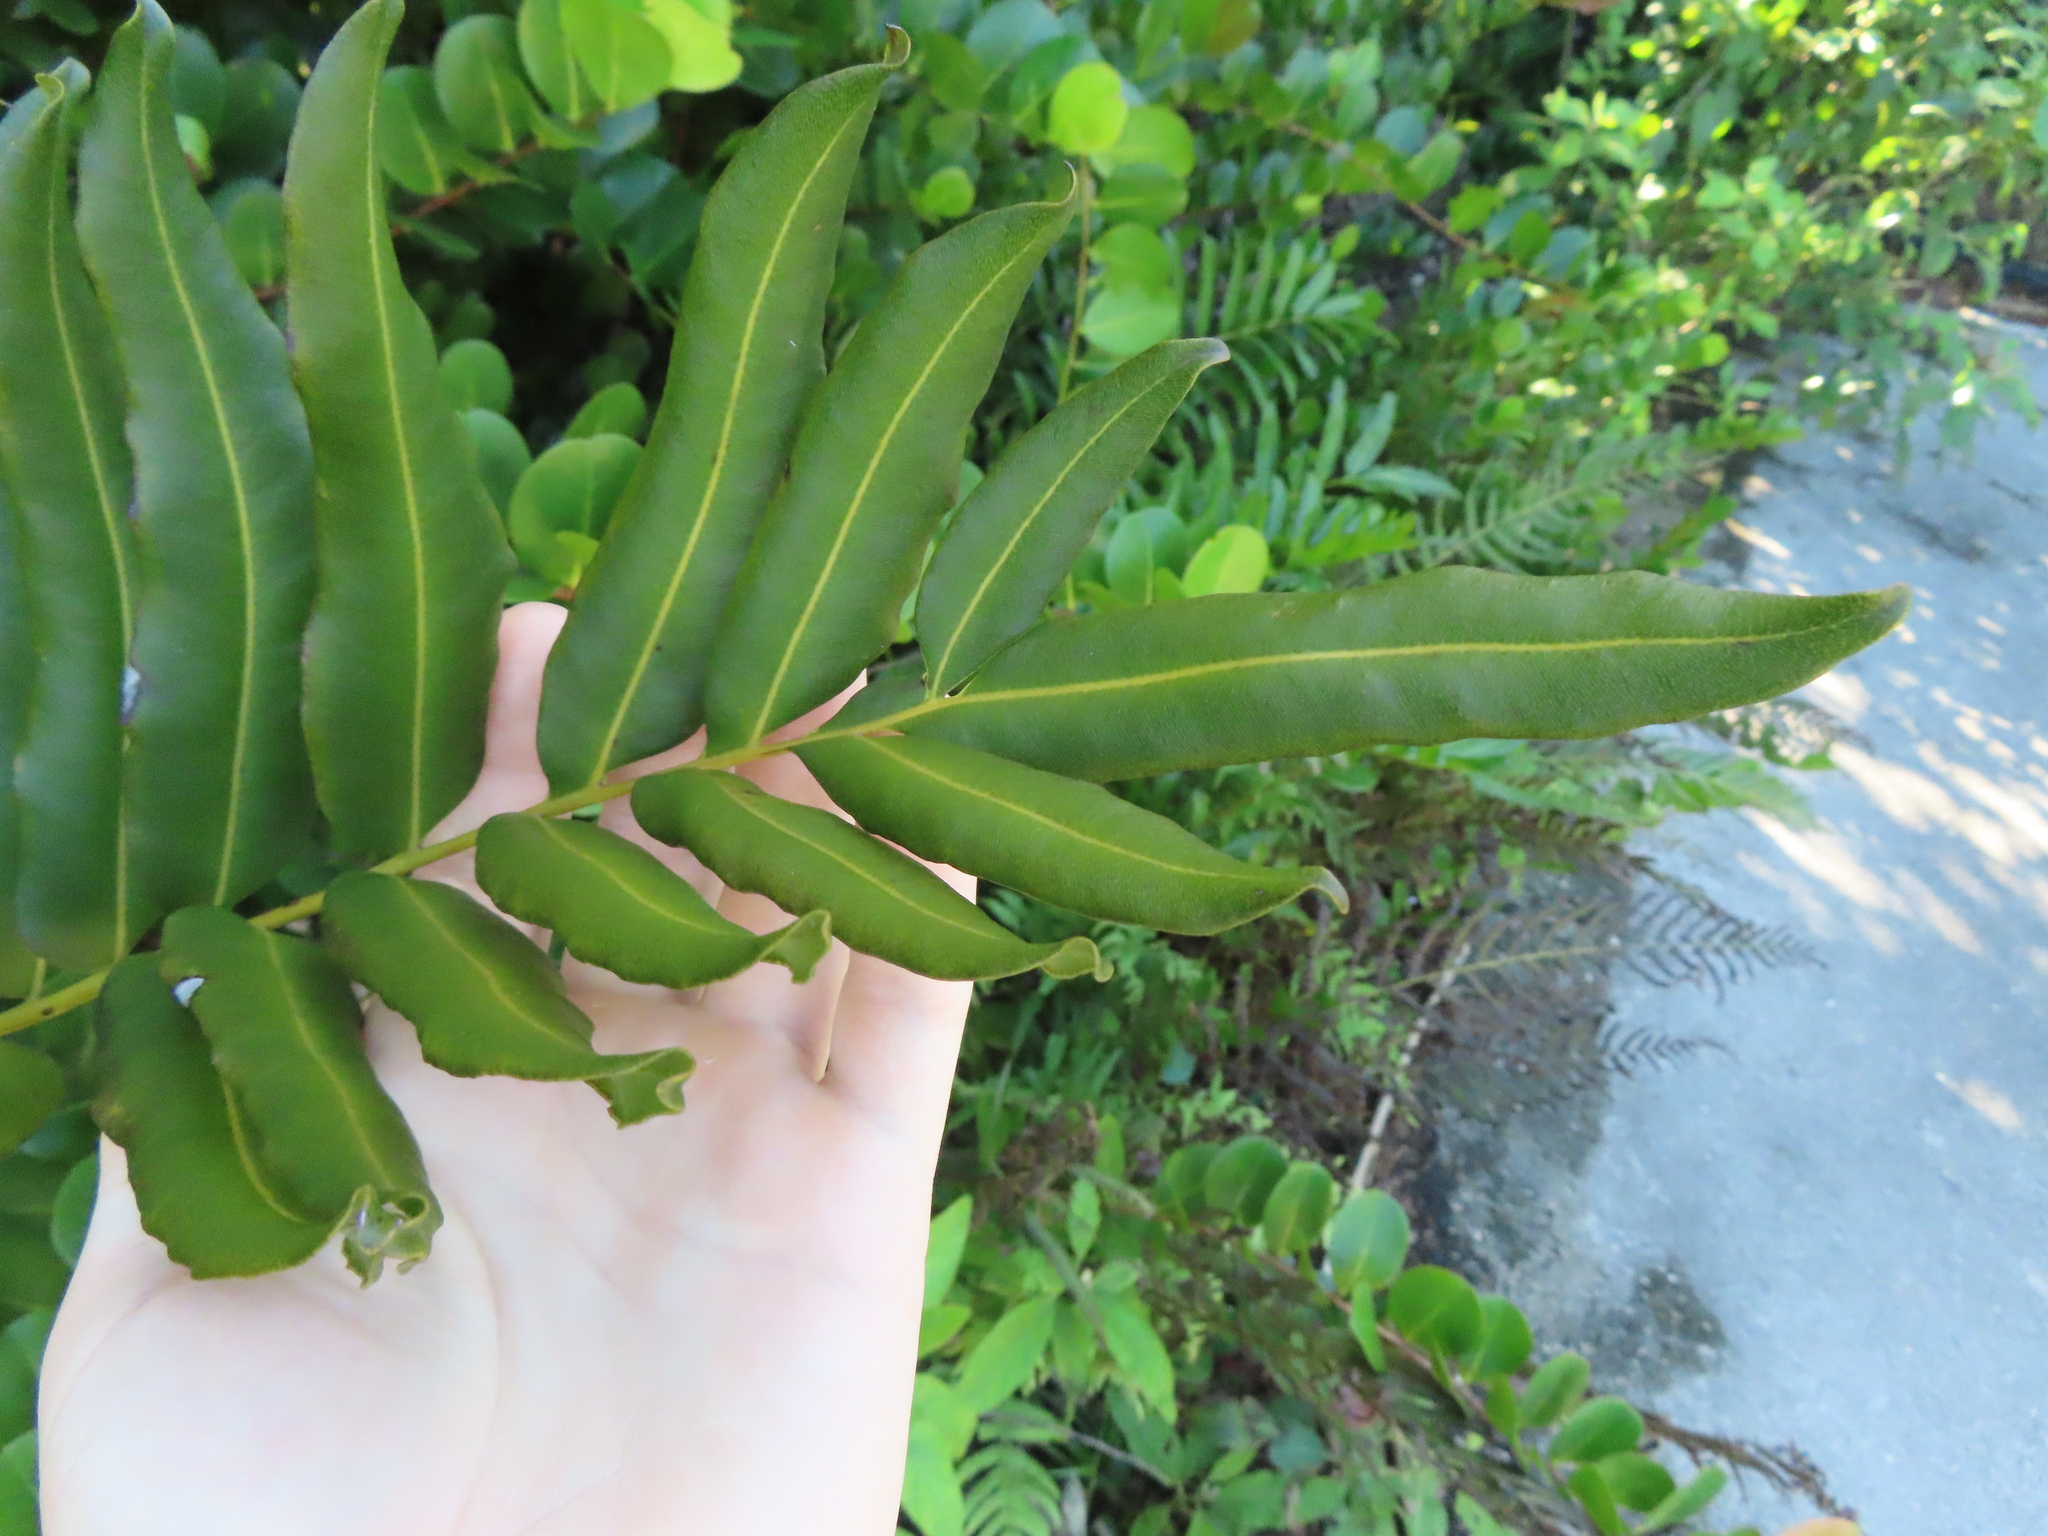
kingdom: Plantae
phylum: Tracheophyta
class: Polypodiopsida
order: Polypodiales
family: Pteridaceae
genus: Acrostichum
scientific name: Acrostichum danaeifolium
